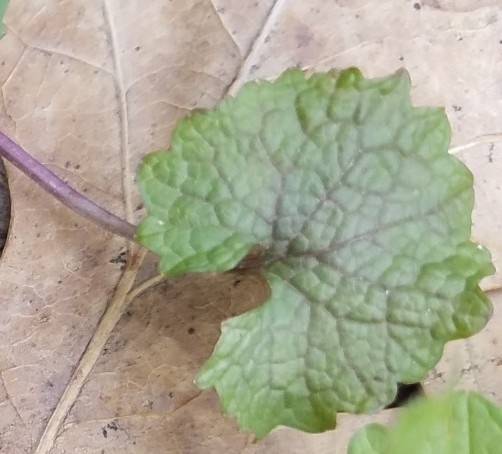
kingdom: Plantae
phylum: Tracheophyta
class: Magnoliopsida
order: Brassicales
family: Brassicaceae
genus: Alliaria
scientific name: Alliaria petiolata
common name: Garlic mustard
